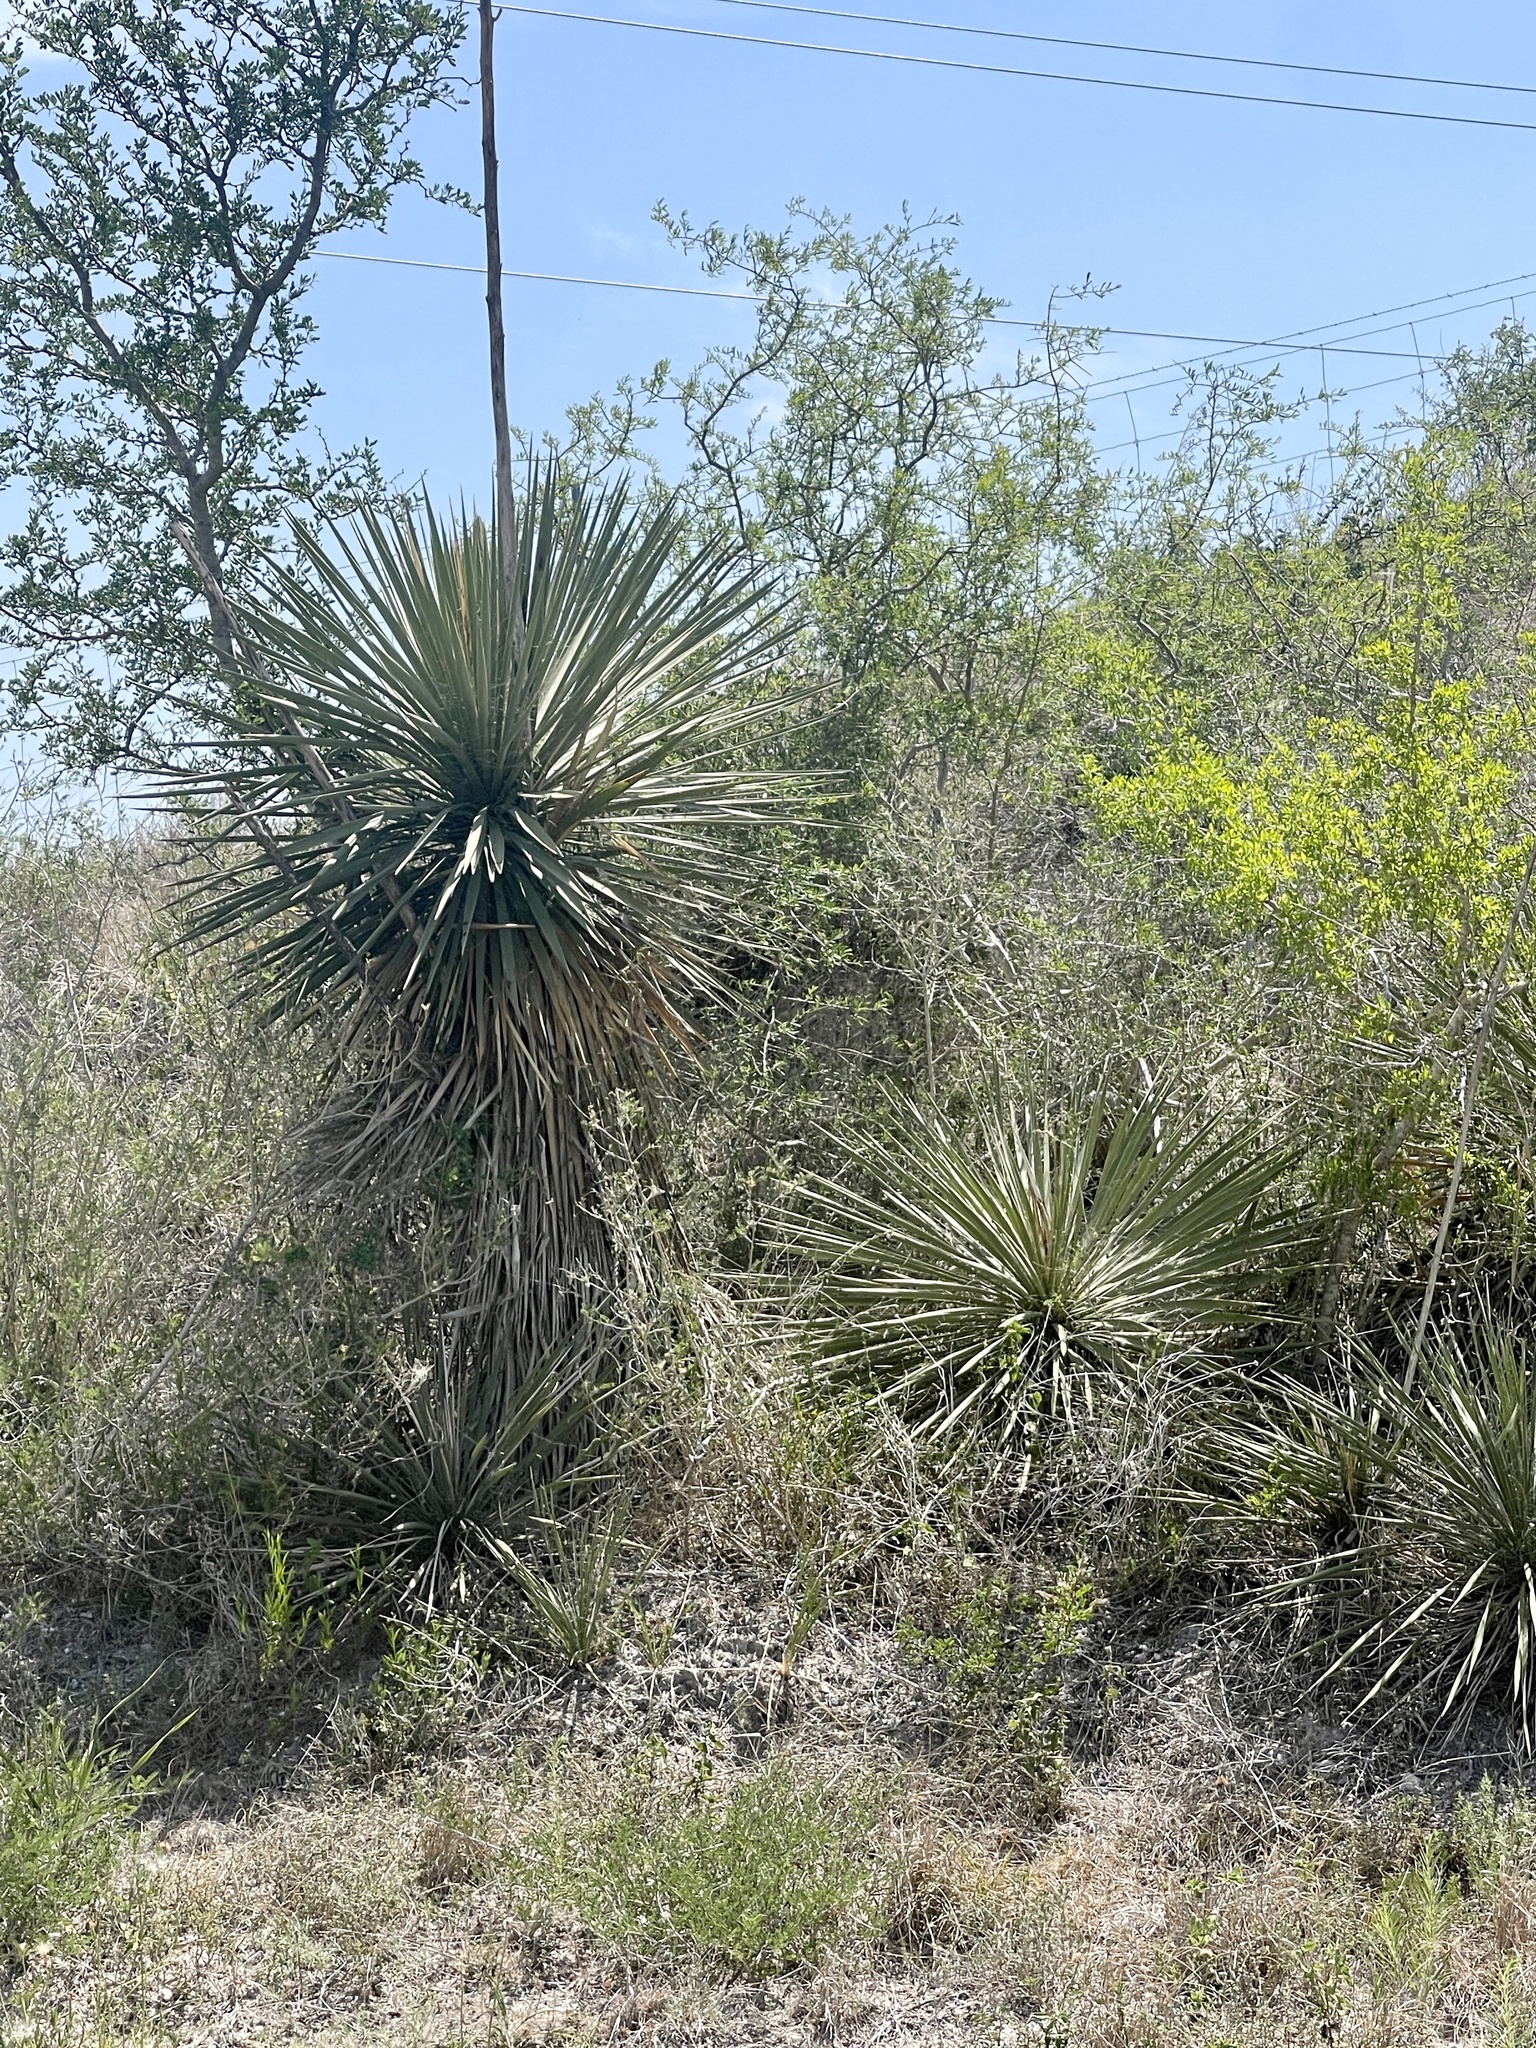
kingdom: Plantae
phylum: Tracheophyta
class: Liliopsida
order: Asparagales
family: Asparagaceae
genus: Yucca
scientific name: Yucca constricta
